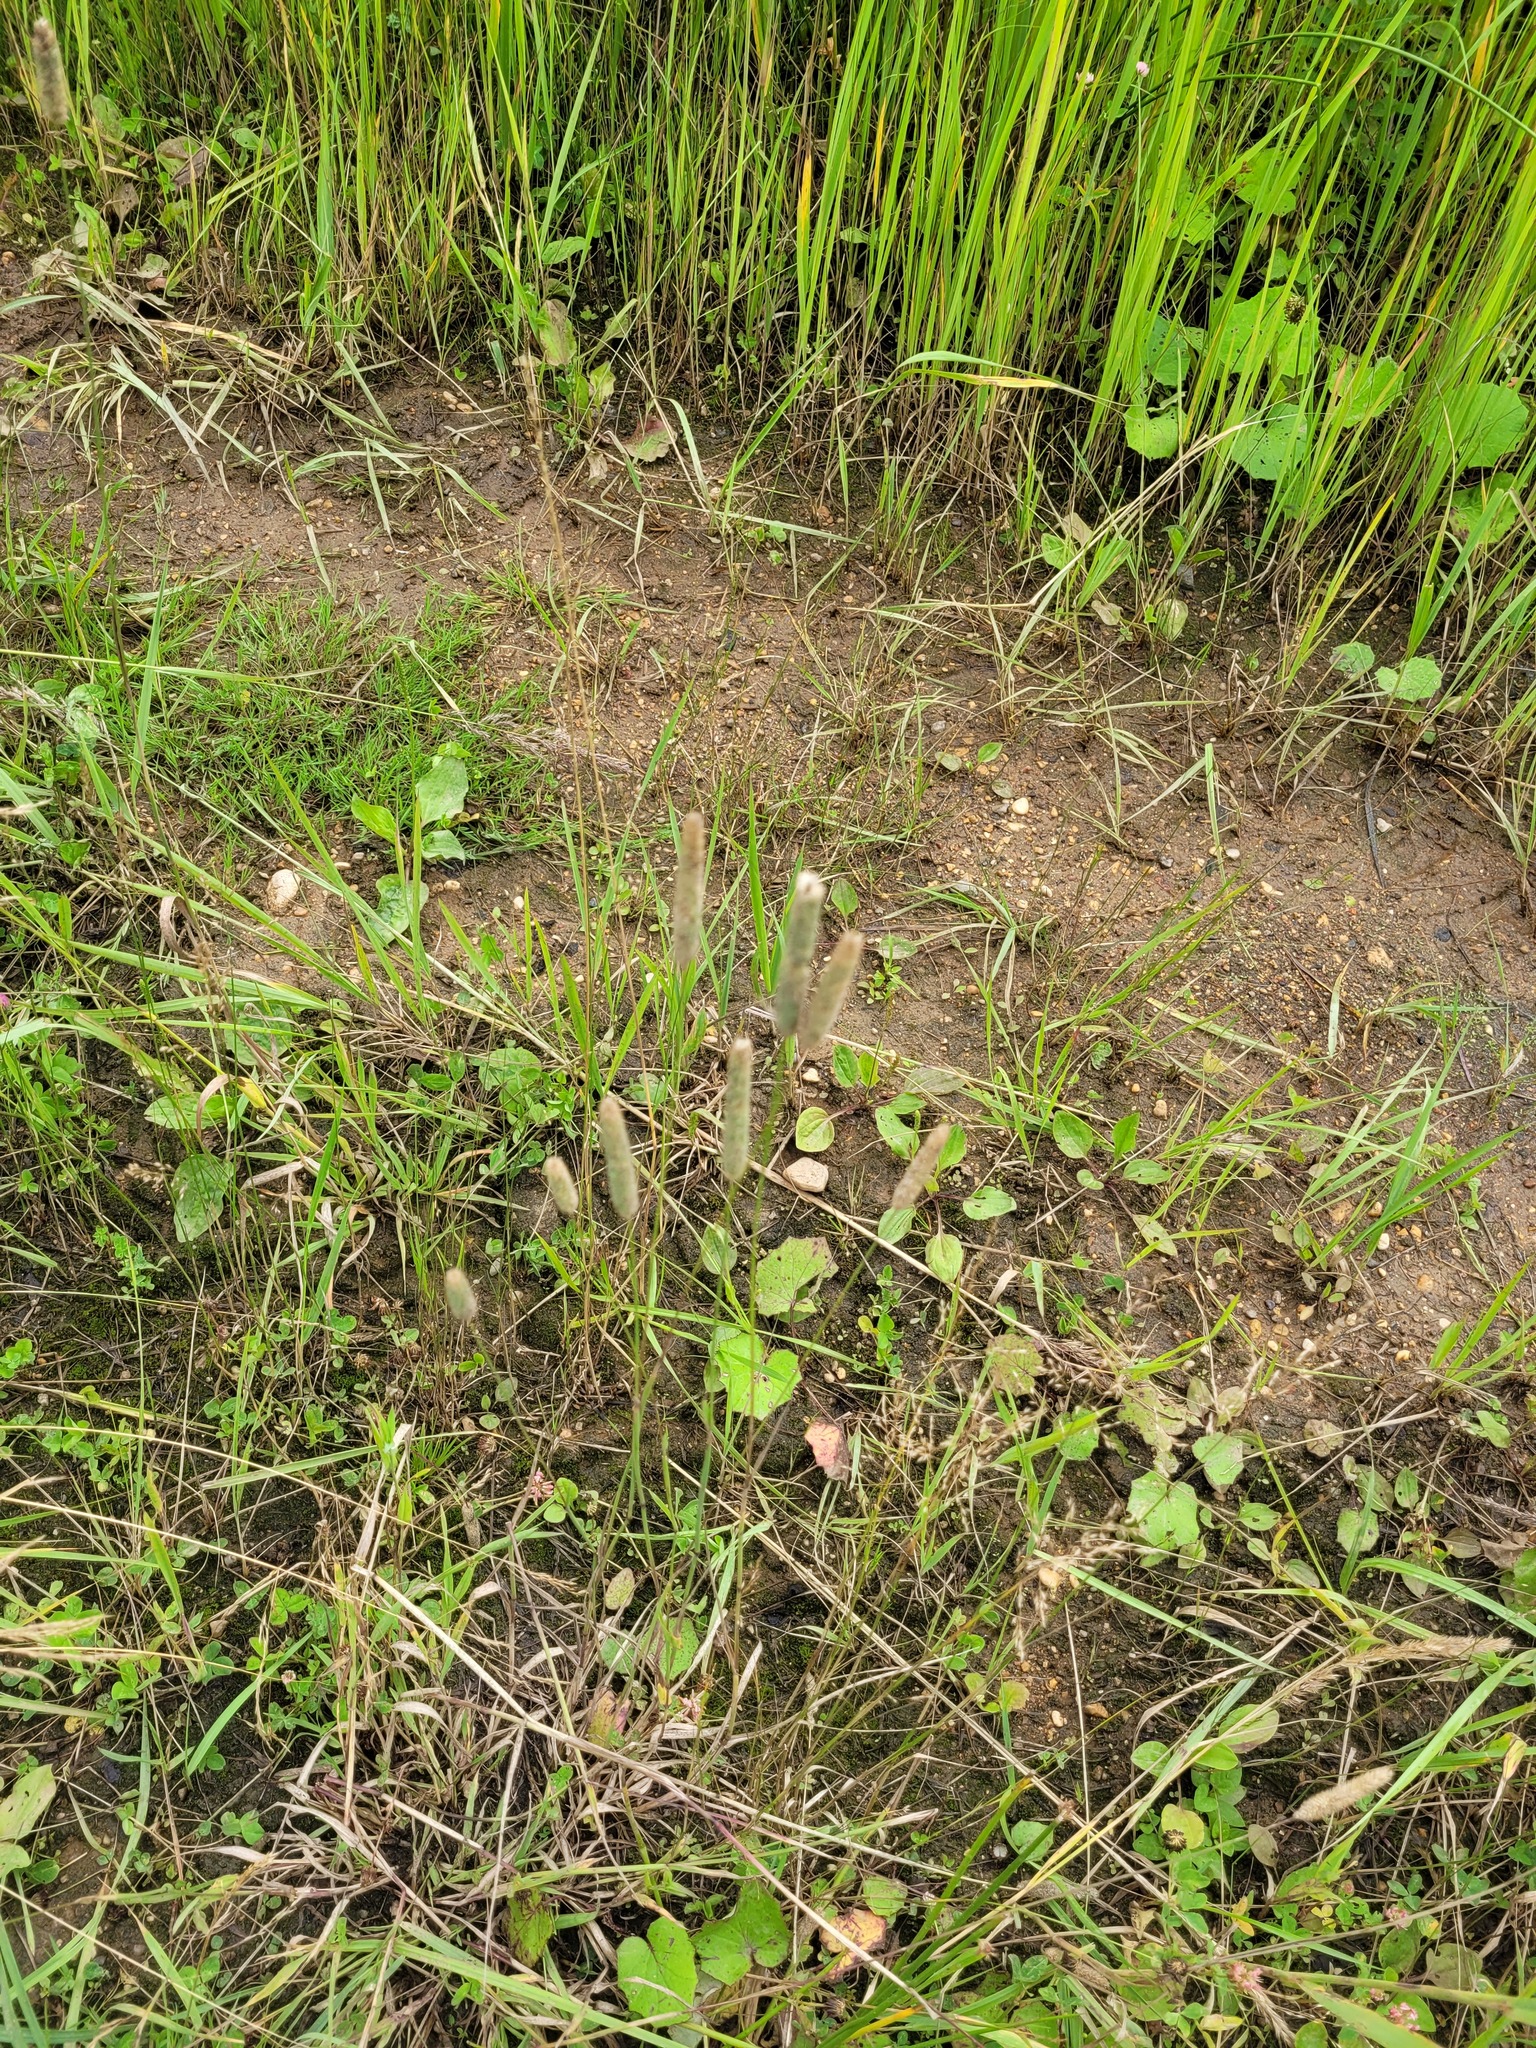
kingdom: Plantae
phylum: Tracheophyta
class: Liliopsida
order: Poales
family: Poaceae
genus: Phleum
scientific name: Phleum pratense
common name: Timothy grass
